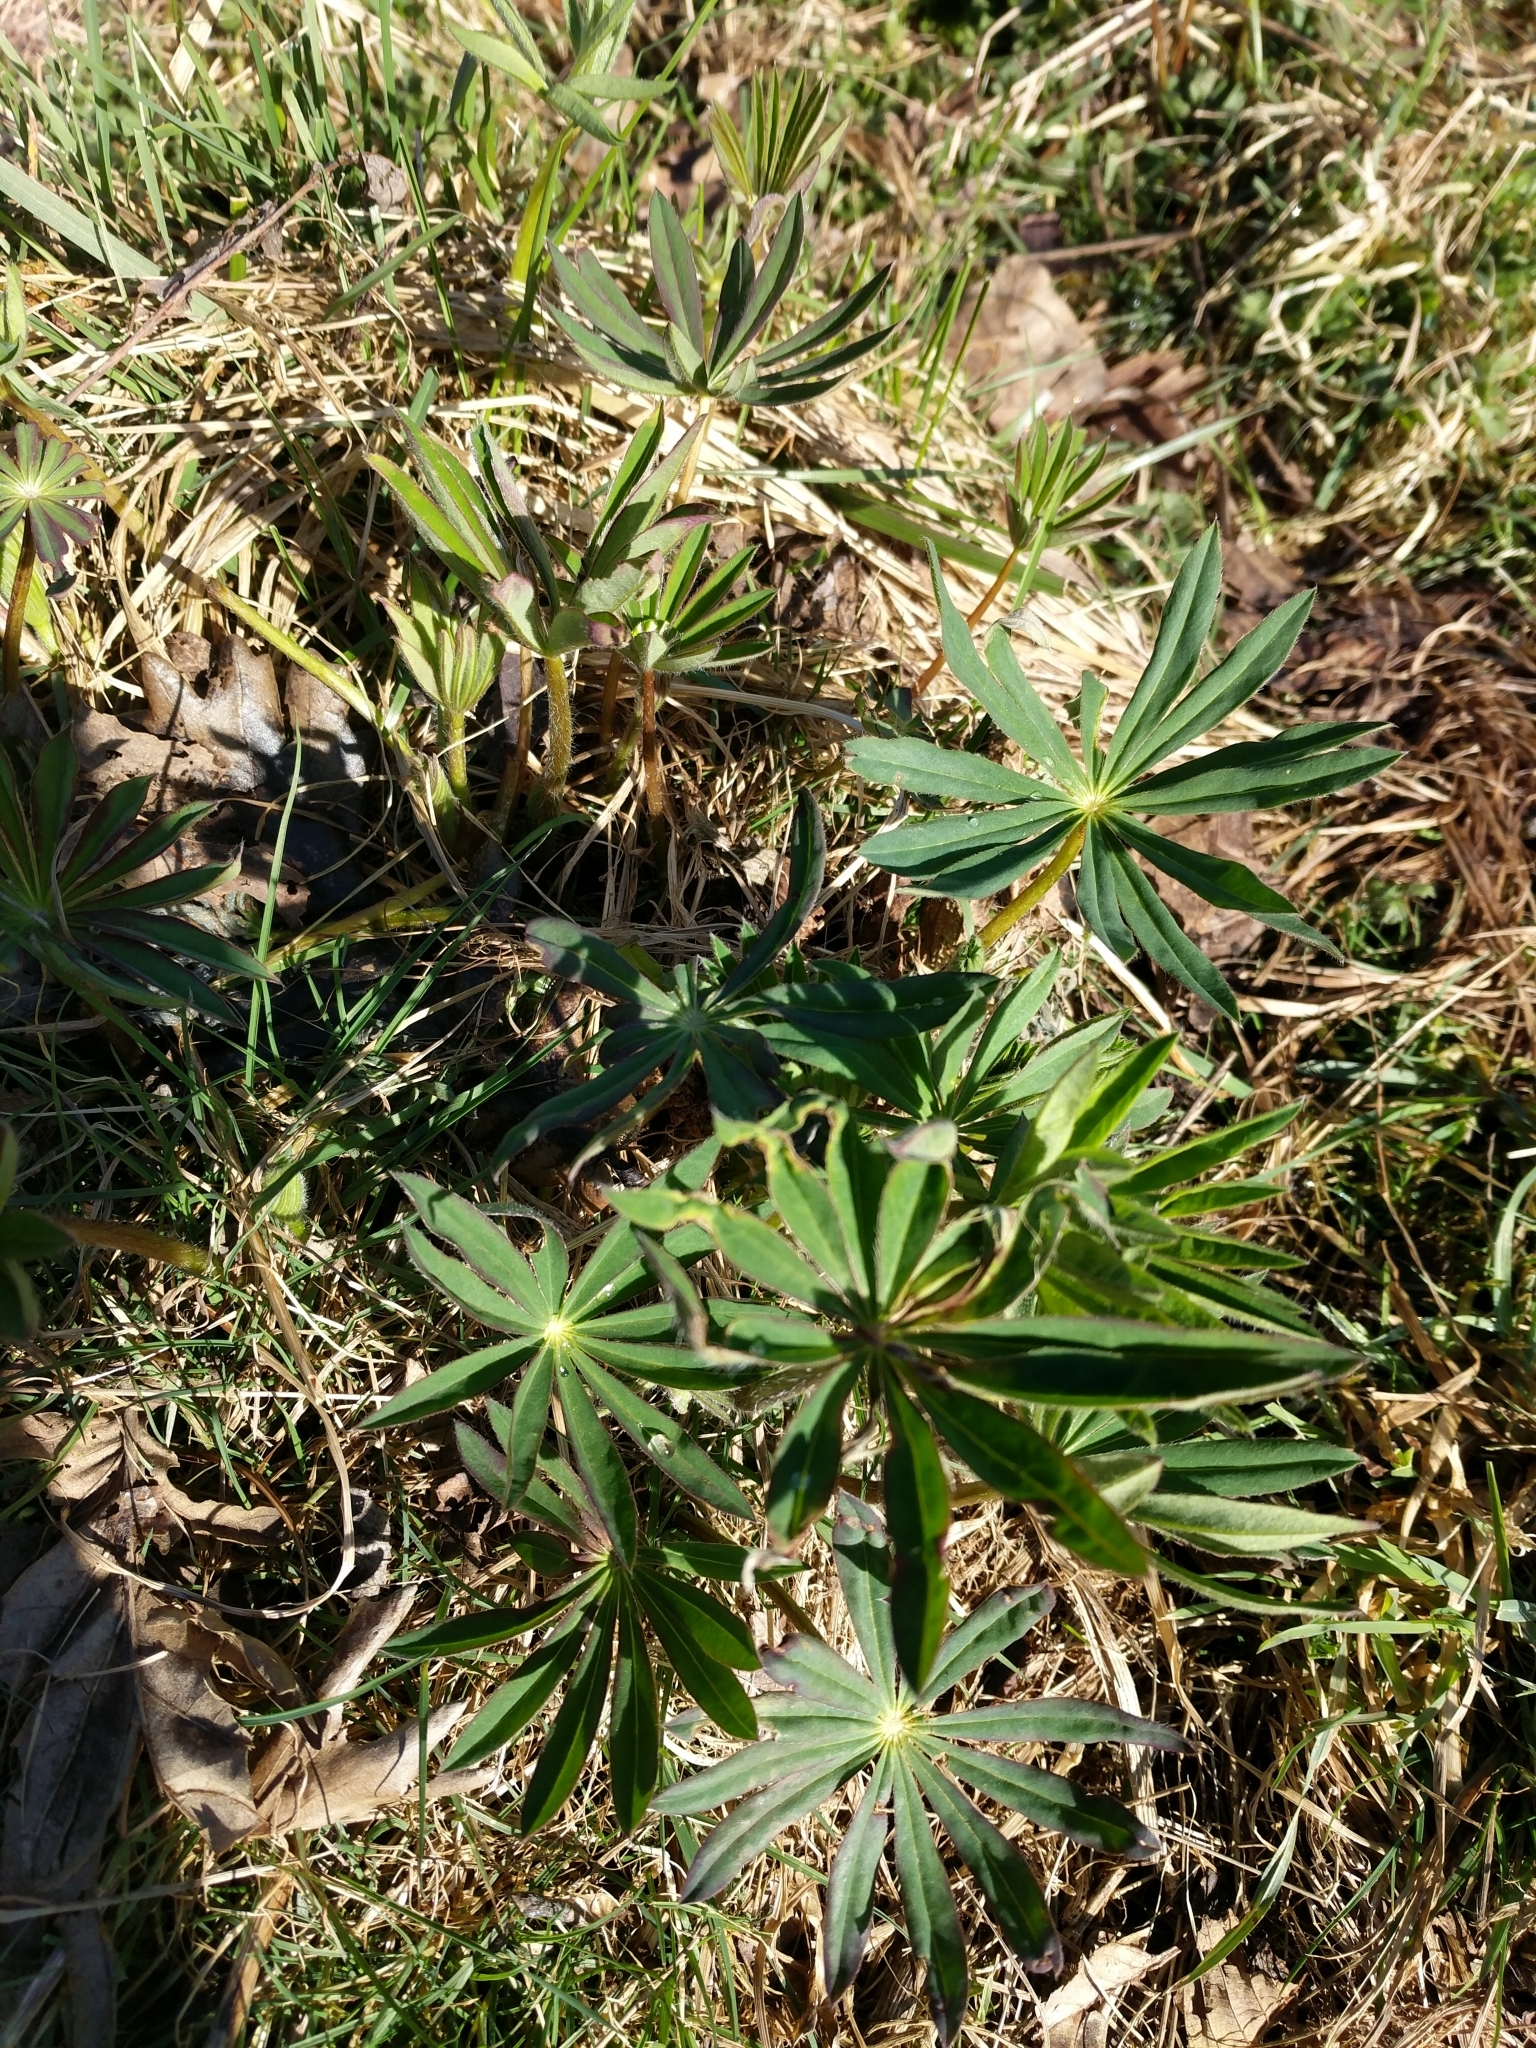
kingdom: Plantae
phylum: Tracheophyta
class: Magnoliopsida
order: Fabales
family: Fabaceae
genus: Lupinus
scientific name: Lupinus polyphyllus
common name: Garden lupin
